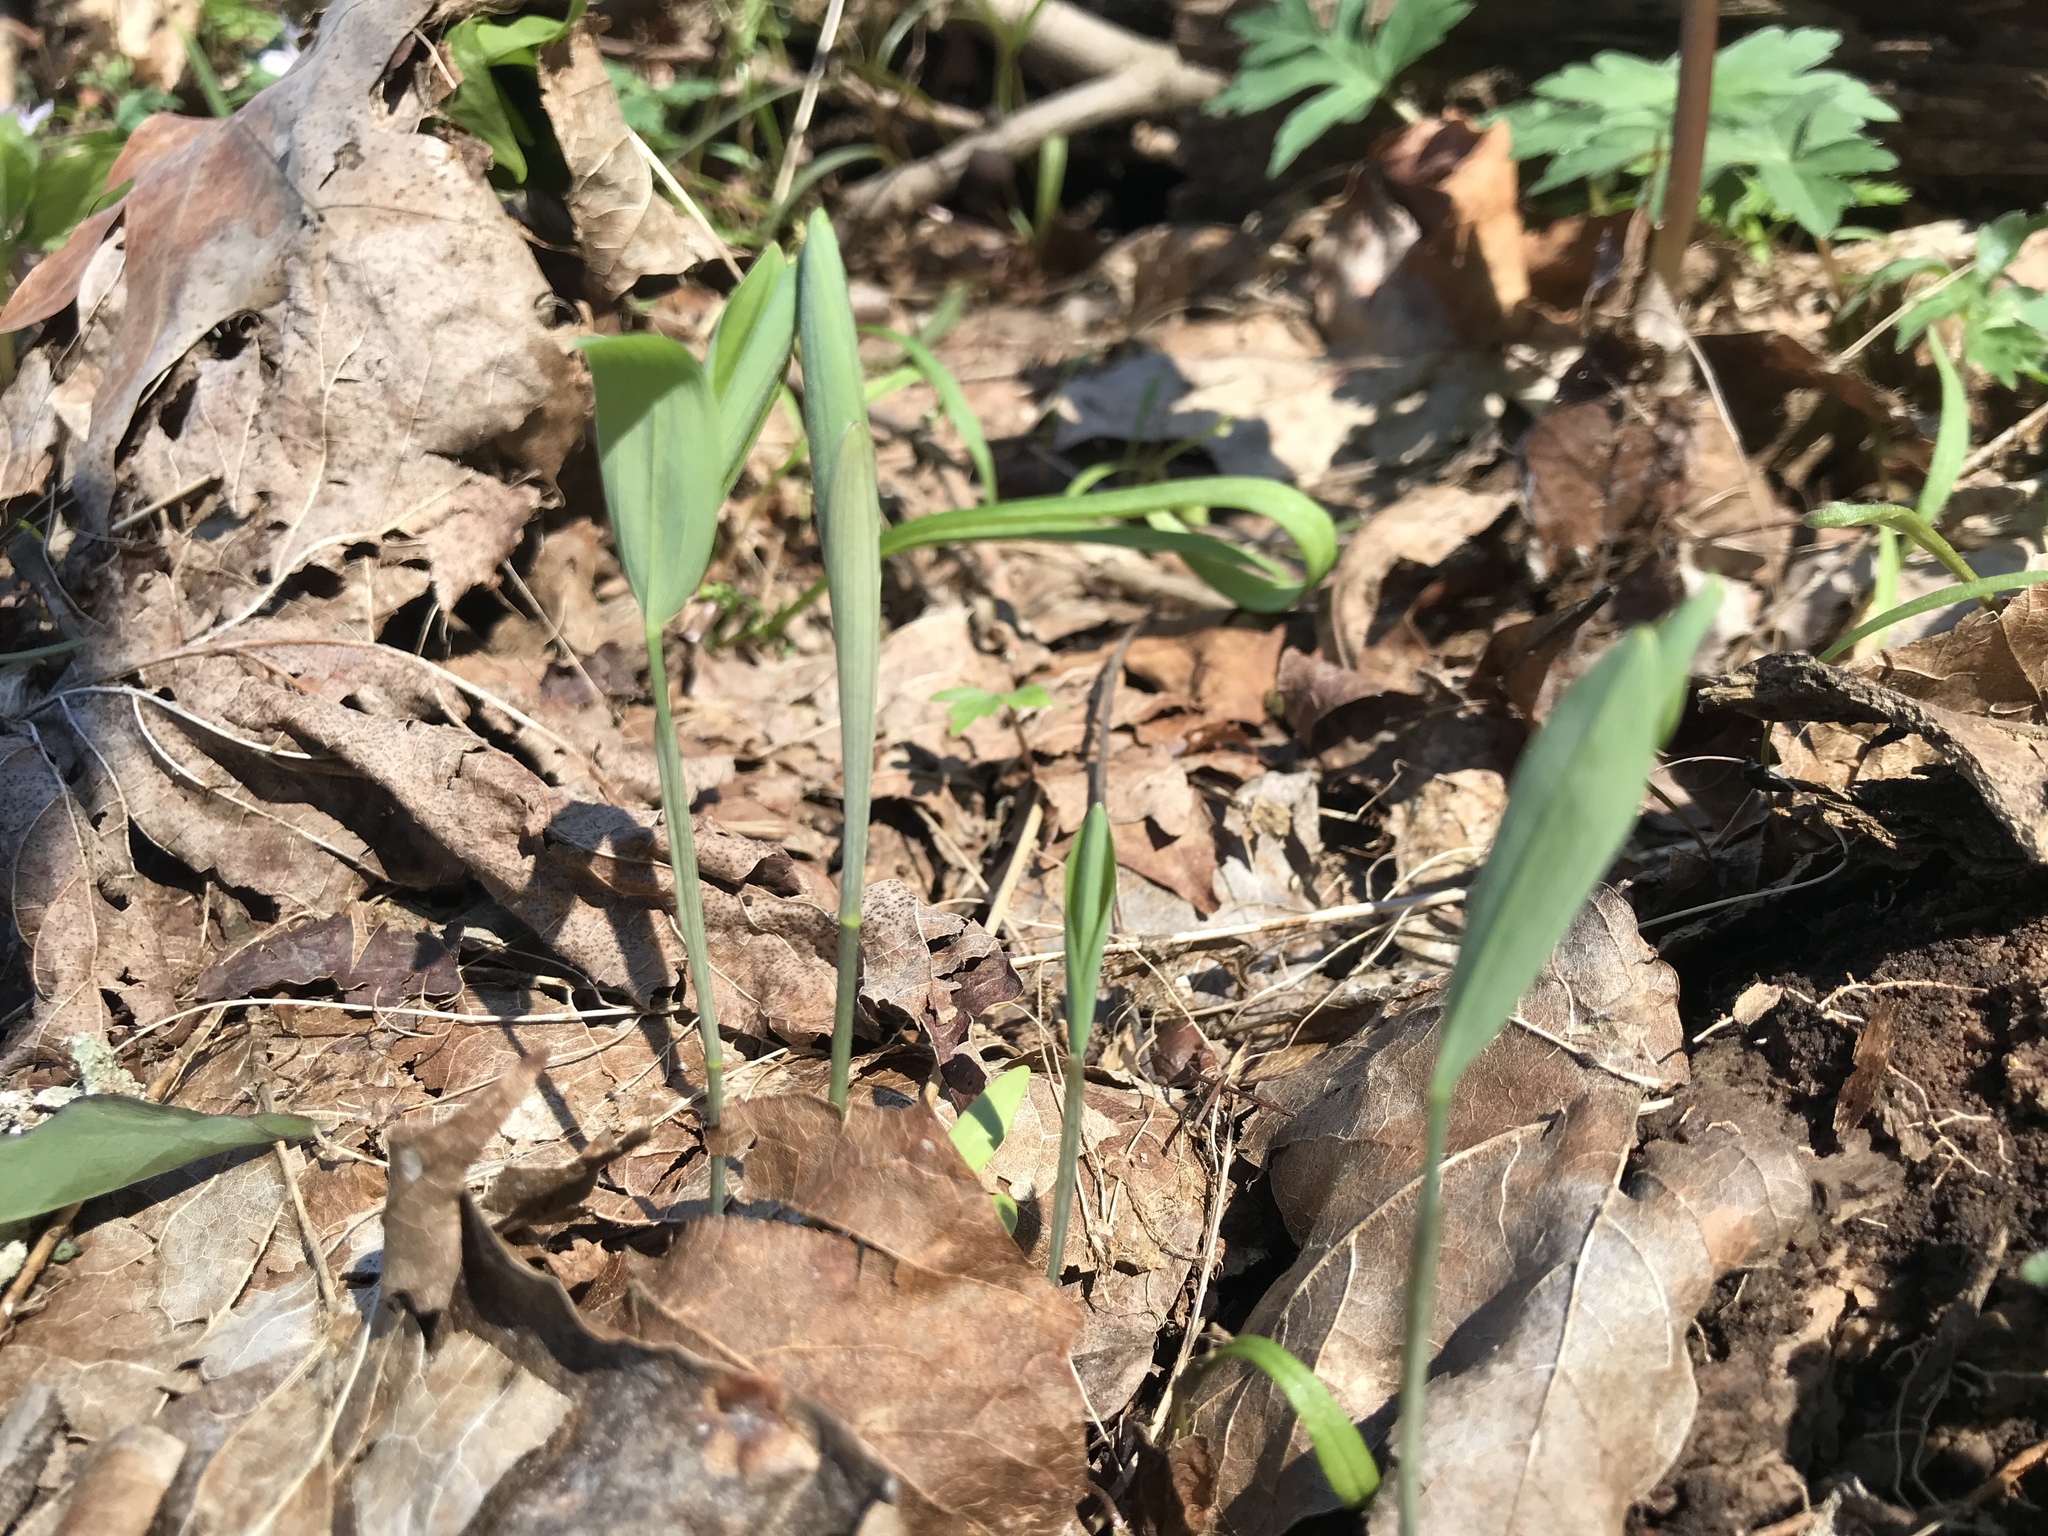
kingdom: Plantae
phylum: Tracheophyta
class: Liliopsida
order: Asparagales
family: Asparagaceae
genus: Polygonatum
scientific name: Polygonatum pubescens
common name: Downy solomon's seal
